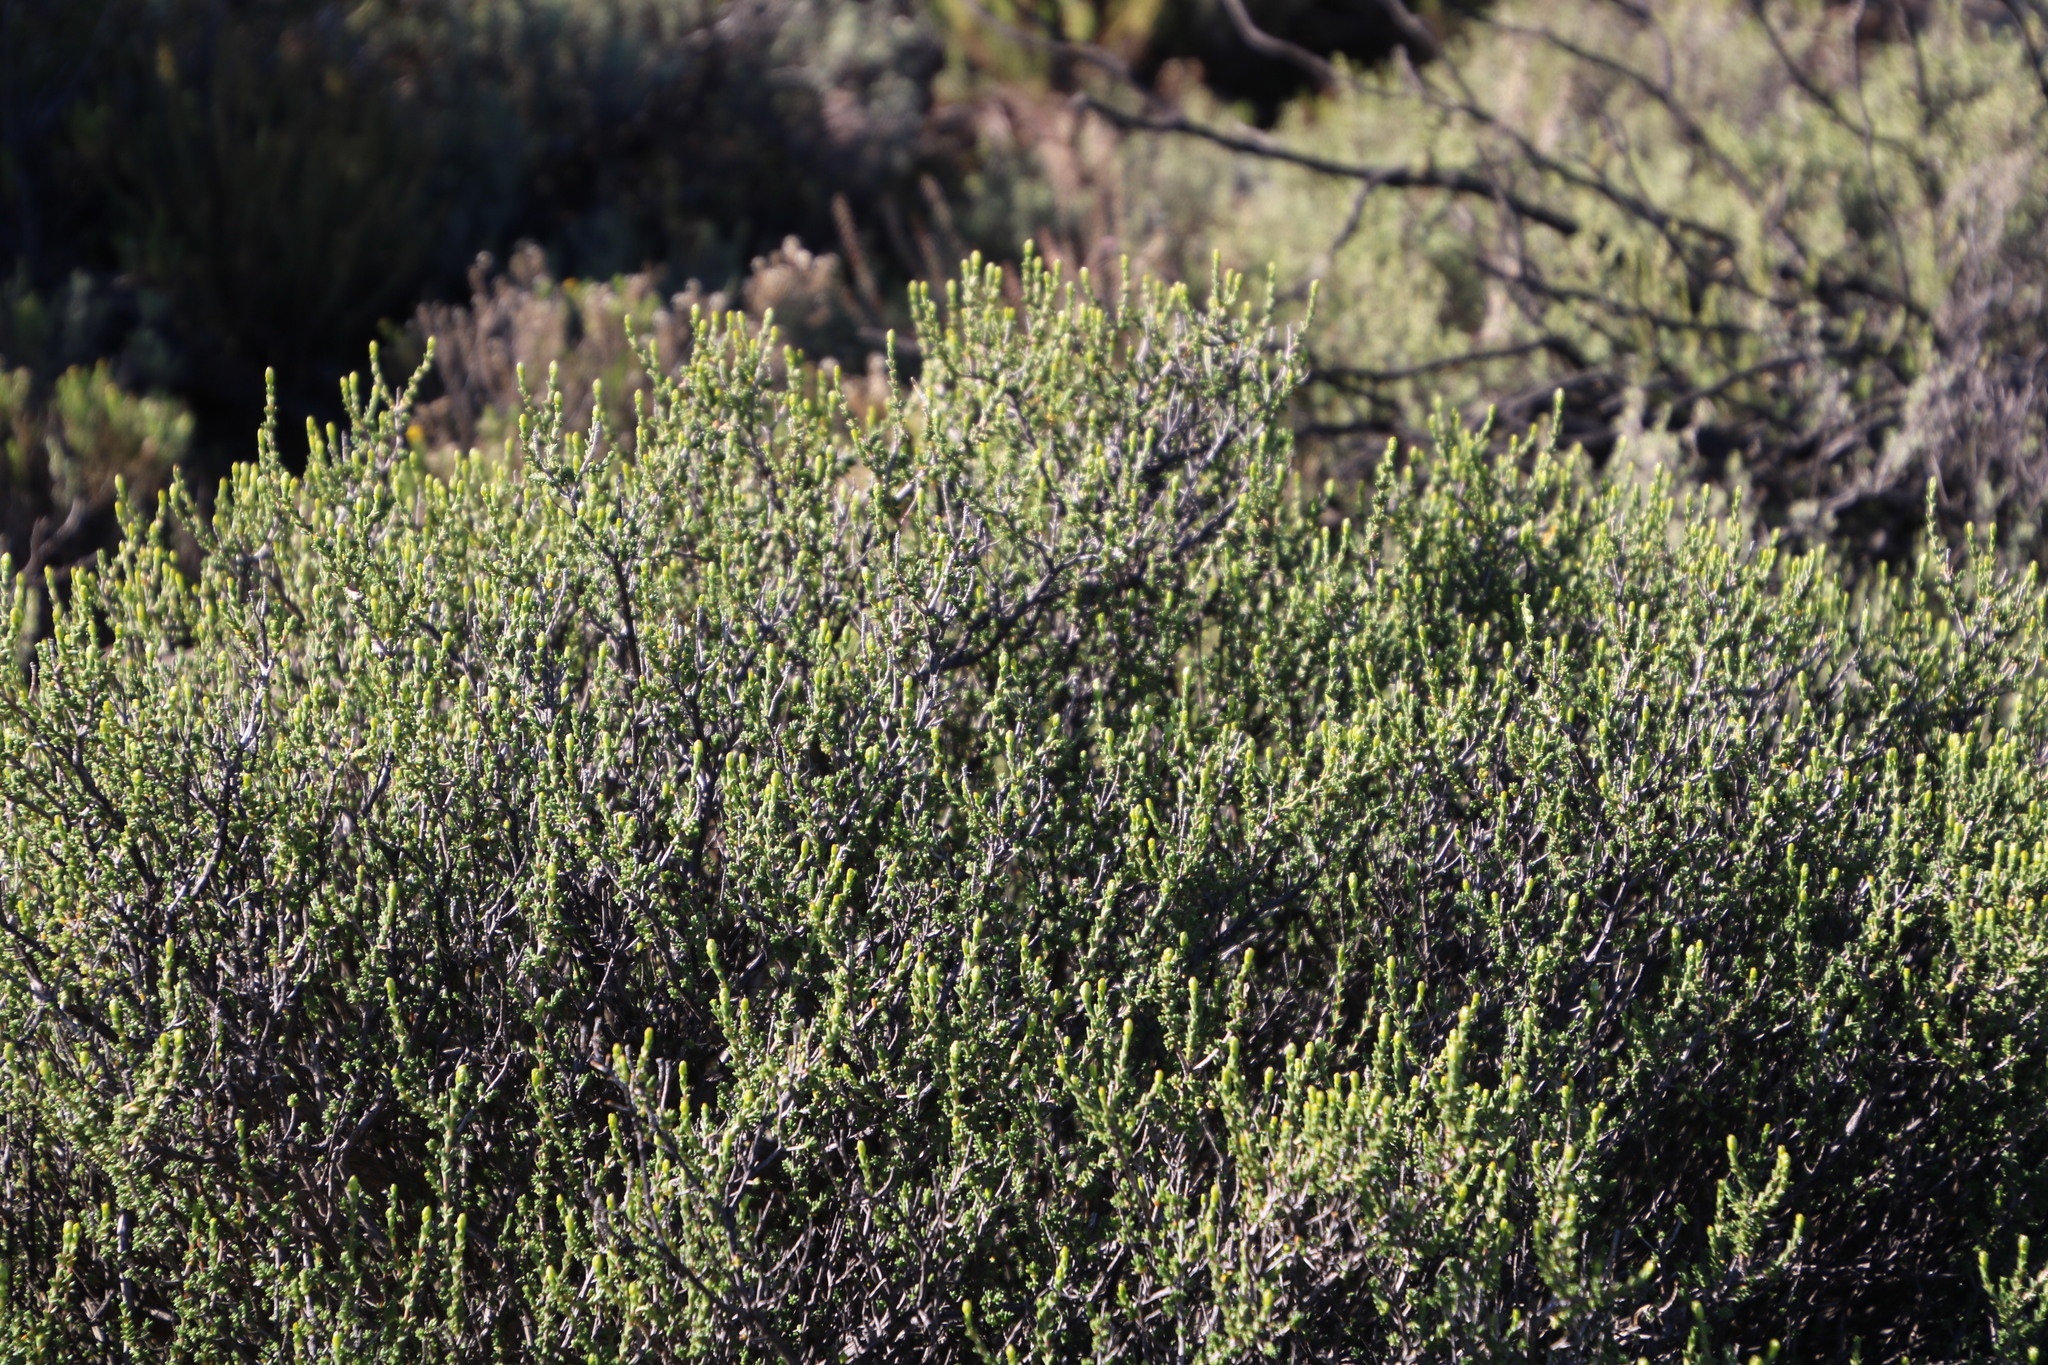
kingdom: Plantae
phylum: Tracheophyta
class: Magnoliopsida
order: Asterales
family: Asteraceae
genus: Pteronia
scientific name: Pteronia glomerata
